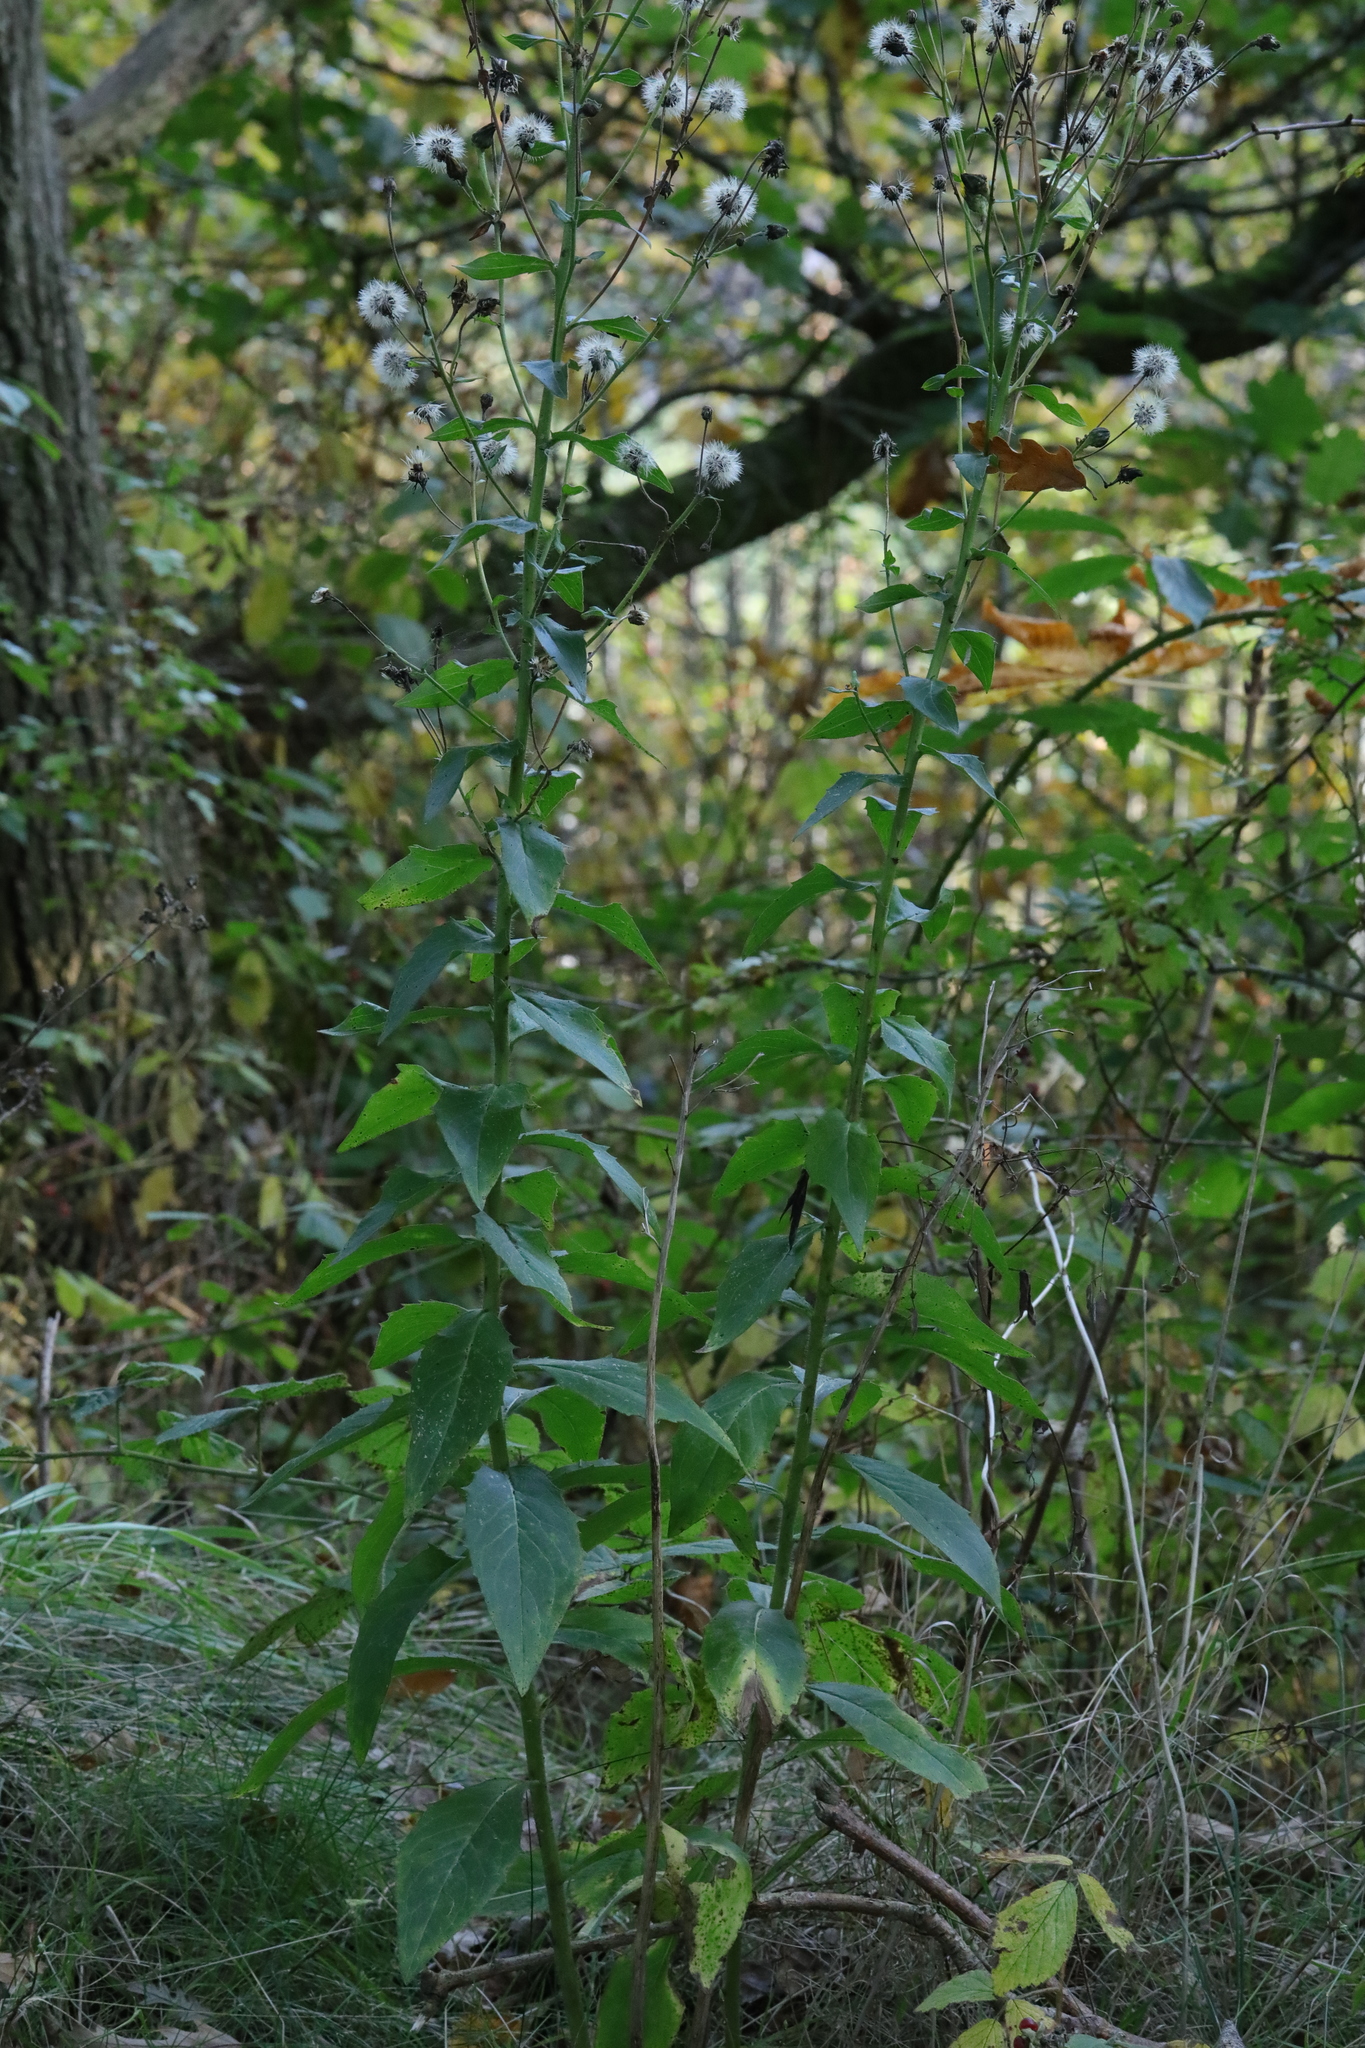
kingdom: Plantae
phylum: Tracheophyta
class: Magnoliopsida
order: Asterales
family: Asteraceae
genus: Hieracium
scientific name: Hieracium sabaudum
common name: New england hawkweed
